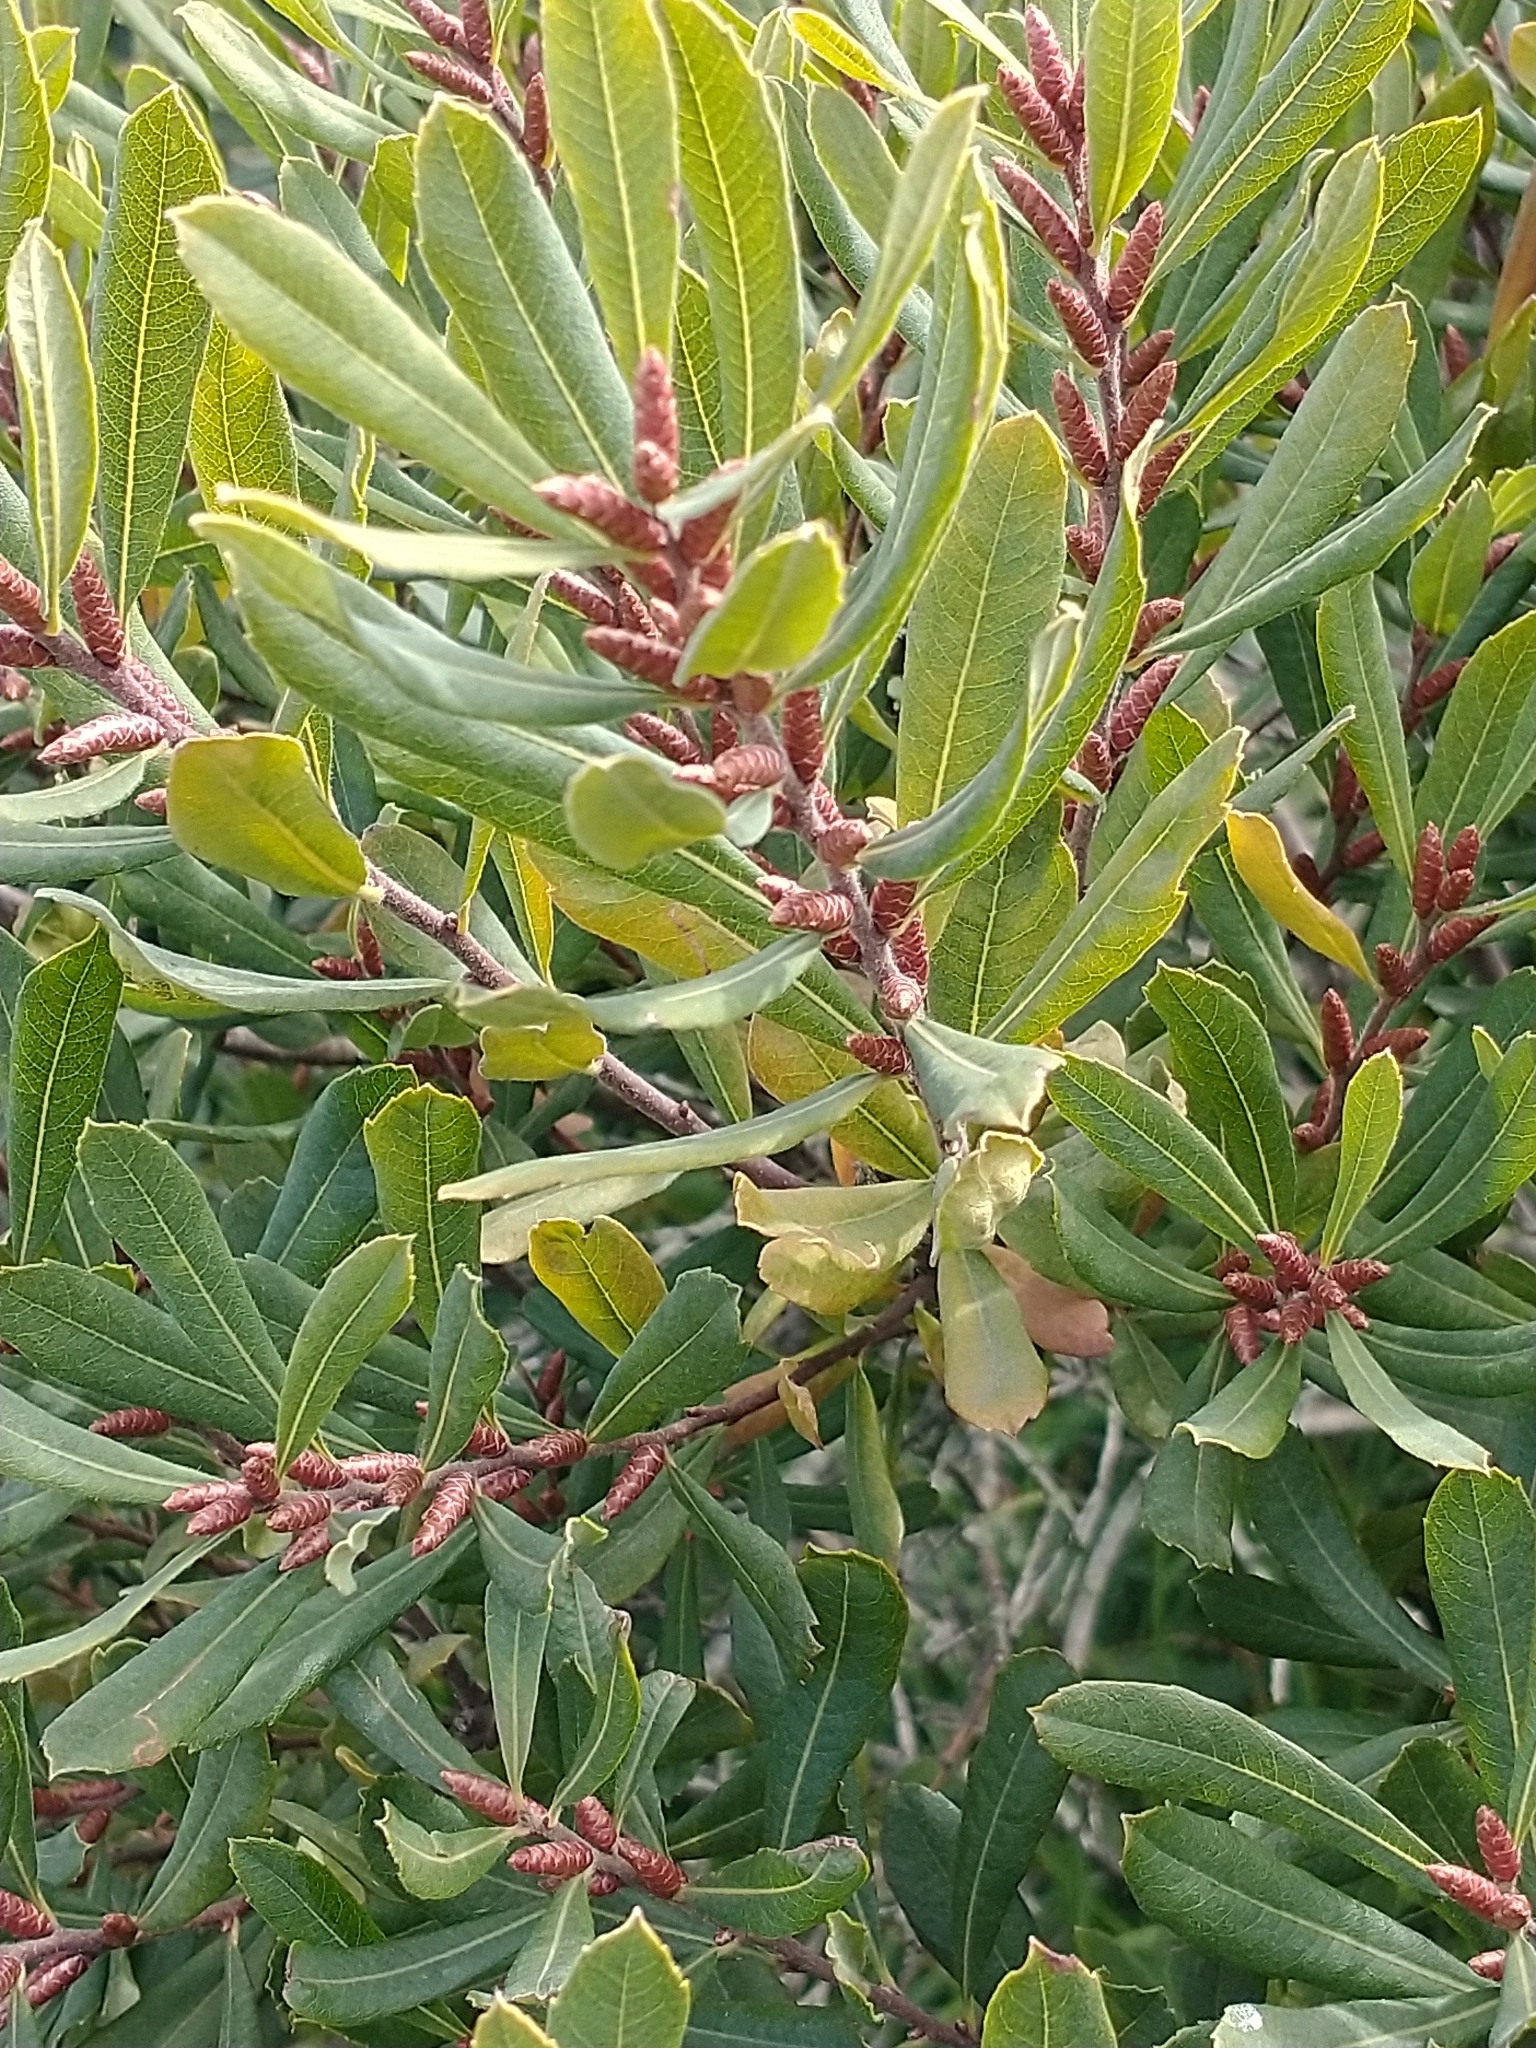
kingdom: Plantae
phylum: Tracheophyta
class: Magnoliopsida
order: Fagales
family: Myricaceae
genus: Myrica
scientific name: Myrica gale
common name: Sweet gale
